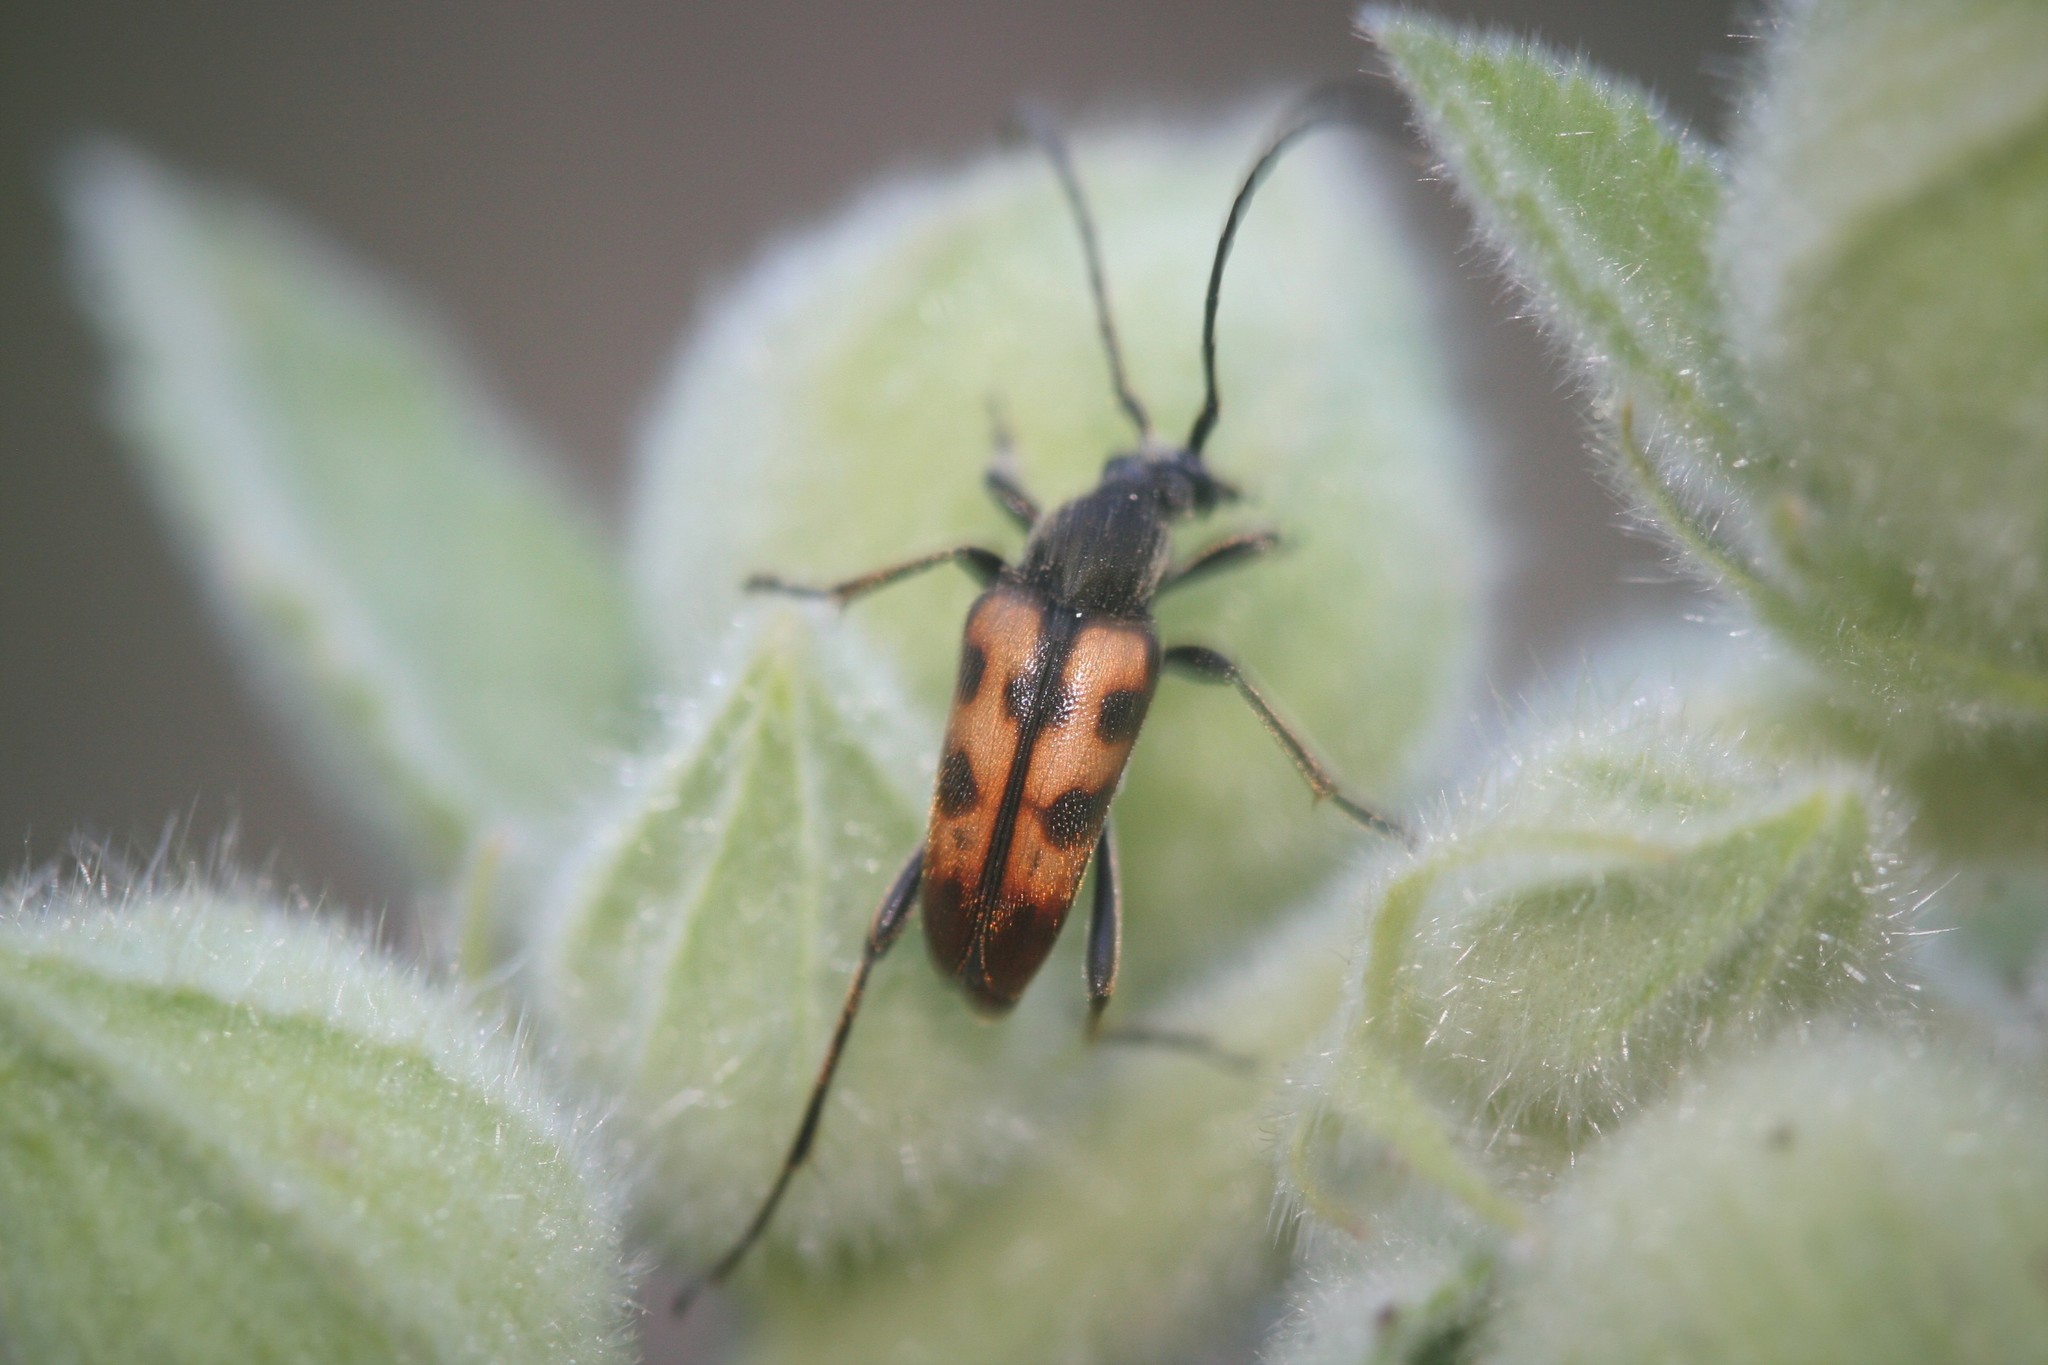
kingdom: Animalia
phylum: Arthropoda
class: Insecta
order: Coleoptera
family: Cerambycidae
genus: Pachytodes
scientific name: Pachytodes
